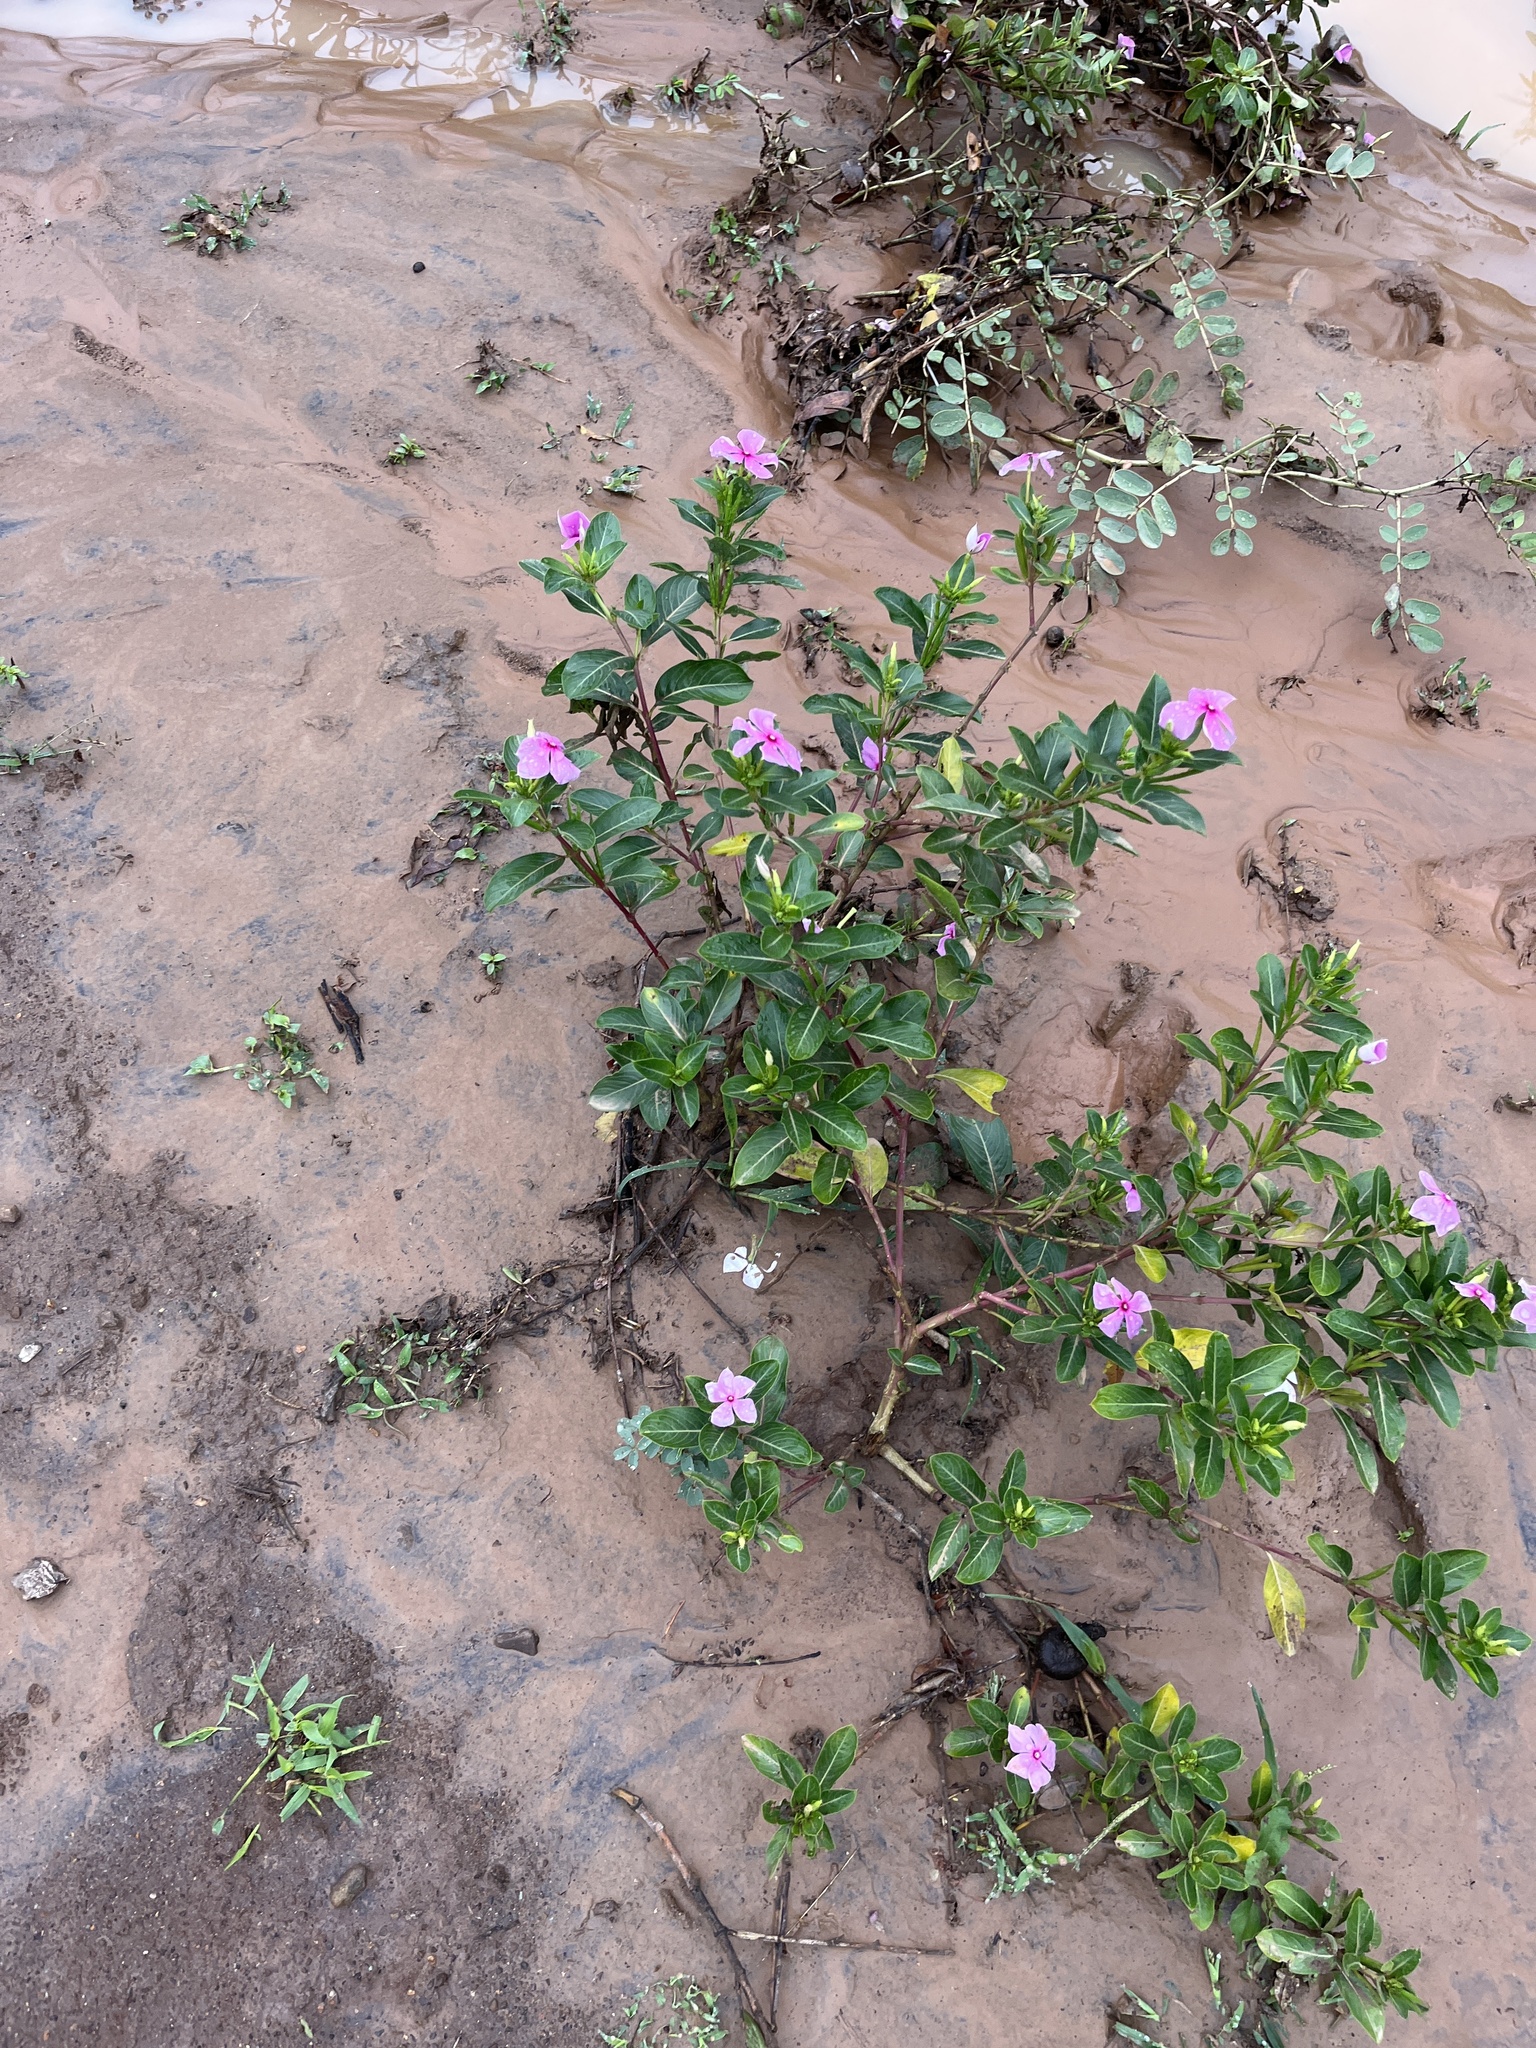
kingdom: Plantae
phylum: Tracheophyta
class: Magnoliopsida
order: Gentianales
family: Apocynaceae
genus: Catharanthus
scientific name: Catharanthus roseus
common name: Madagascar periwinkle
